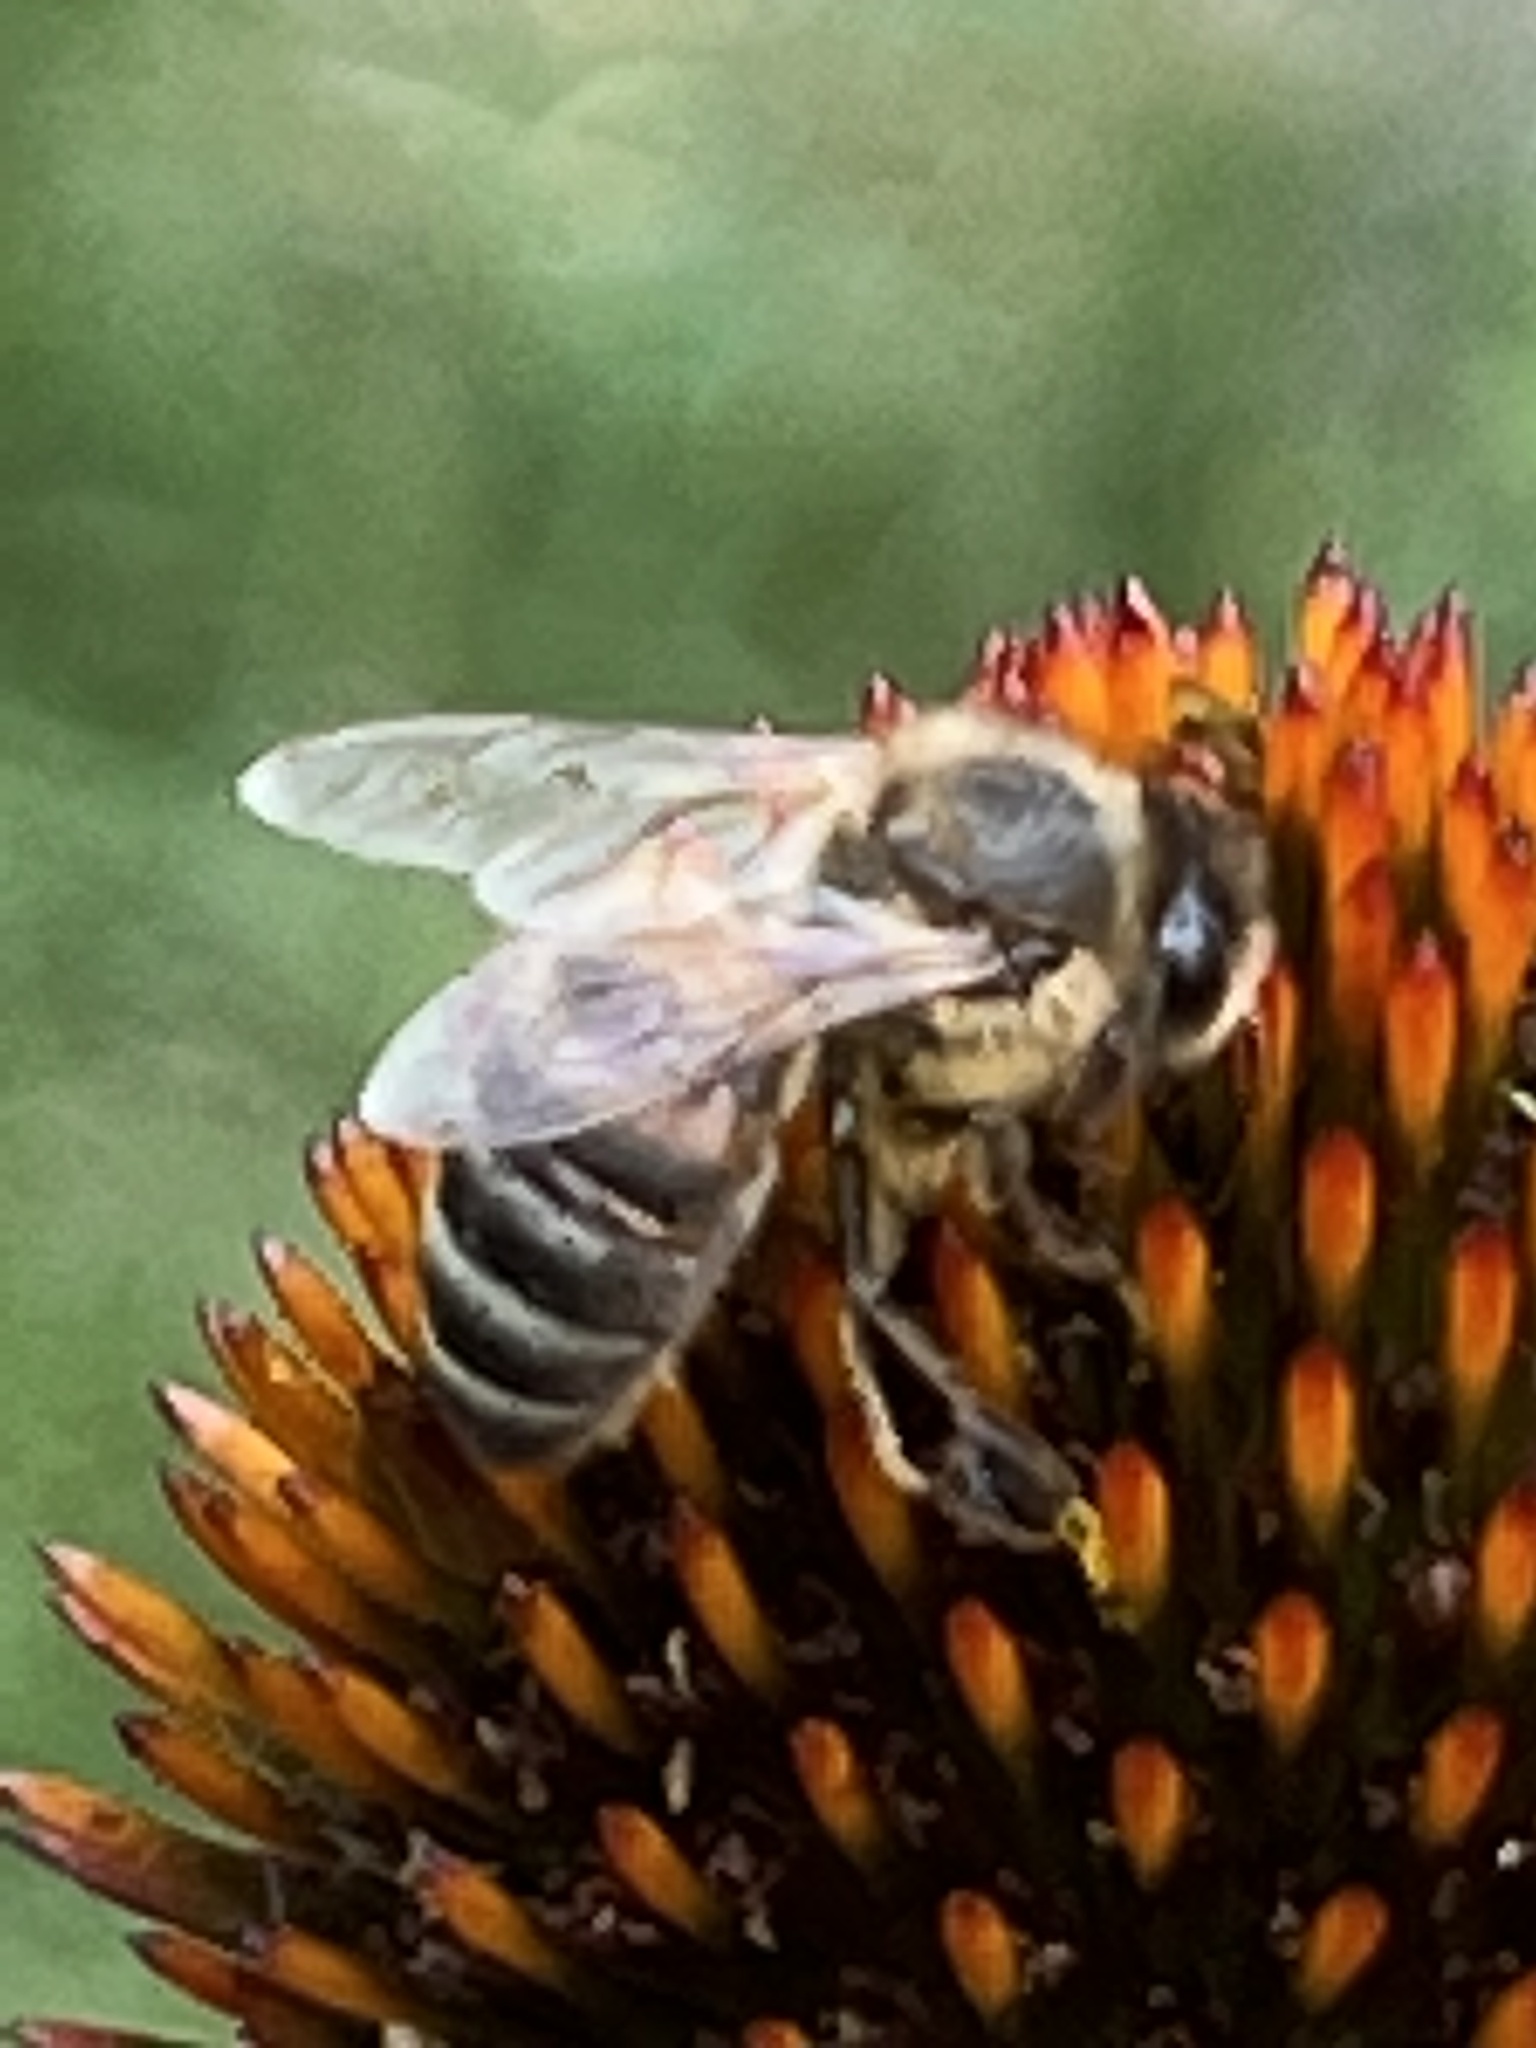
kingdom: Animalia
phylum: Arthropoda
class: Insecta
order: Hymenoptera
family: Apidae
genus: Apis
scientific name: Apis mellifera
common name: Honey bee
